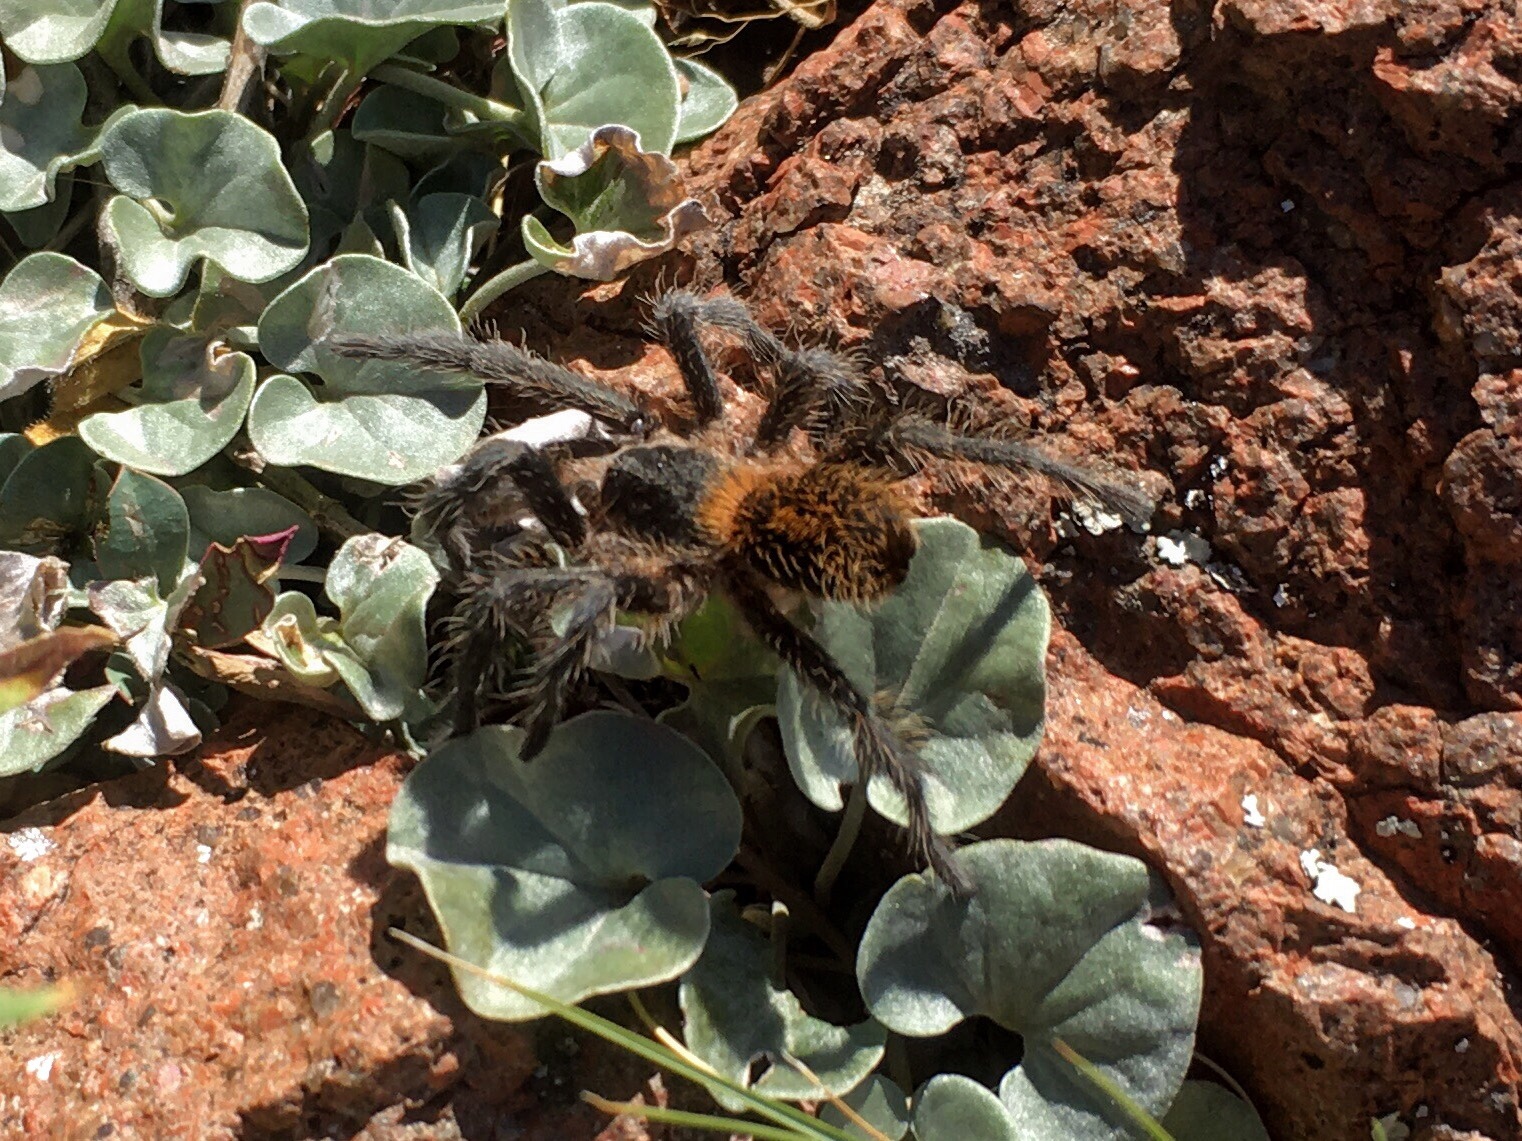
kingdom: Animalia
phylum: Arthropoda
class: Arachnida
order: Araneae
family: Theraphosidae
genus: Plesiopelma
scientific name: Plesiopelma longisternale
